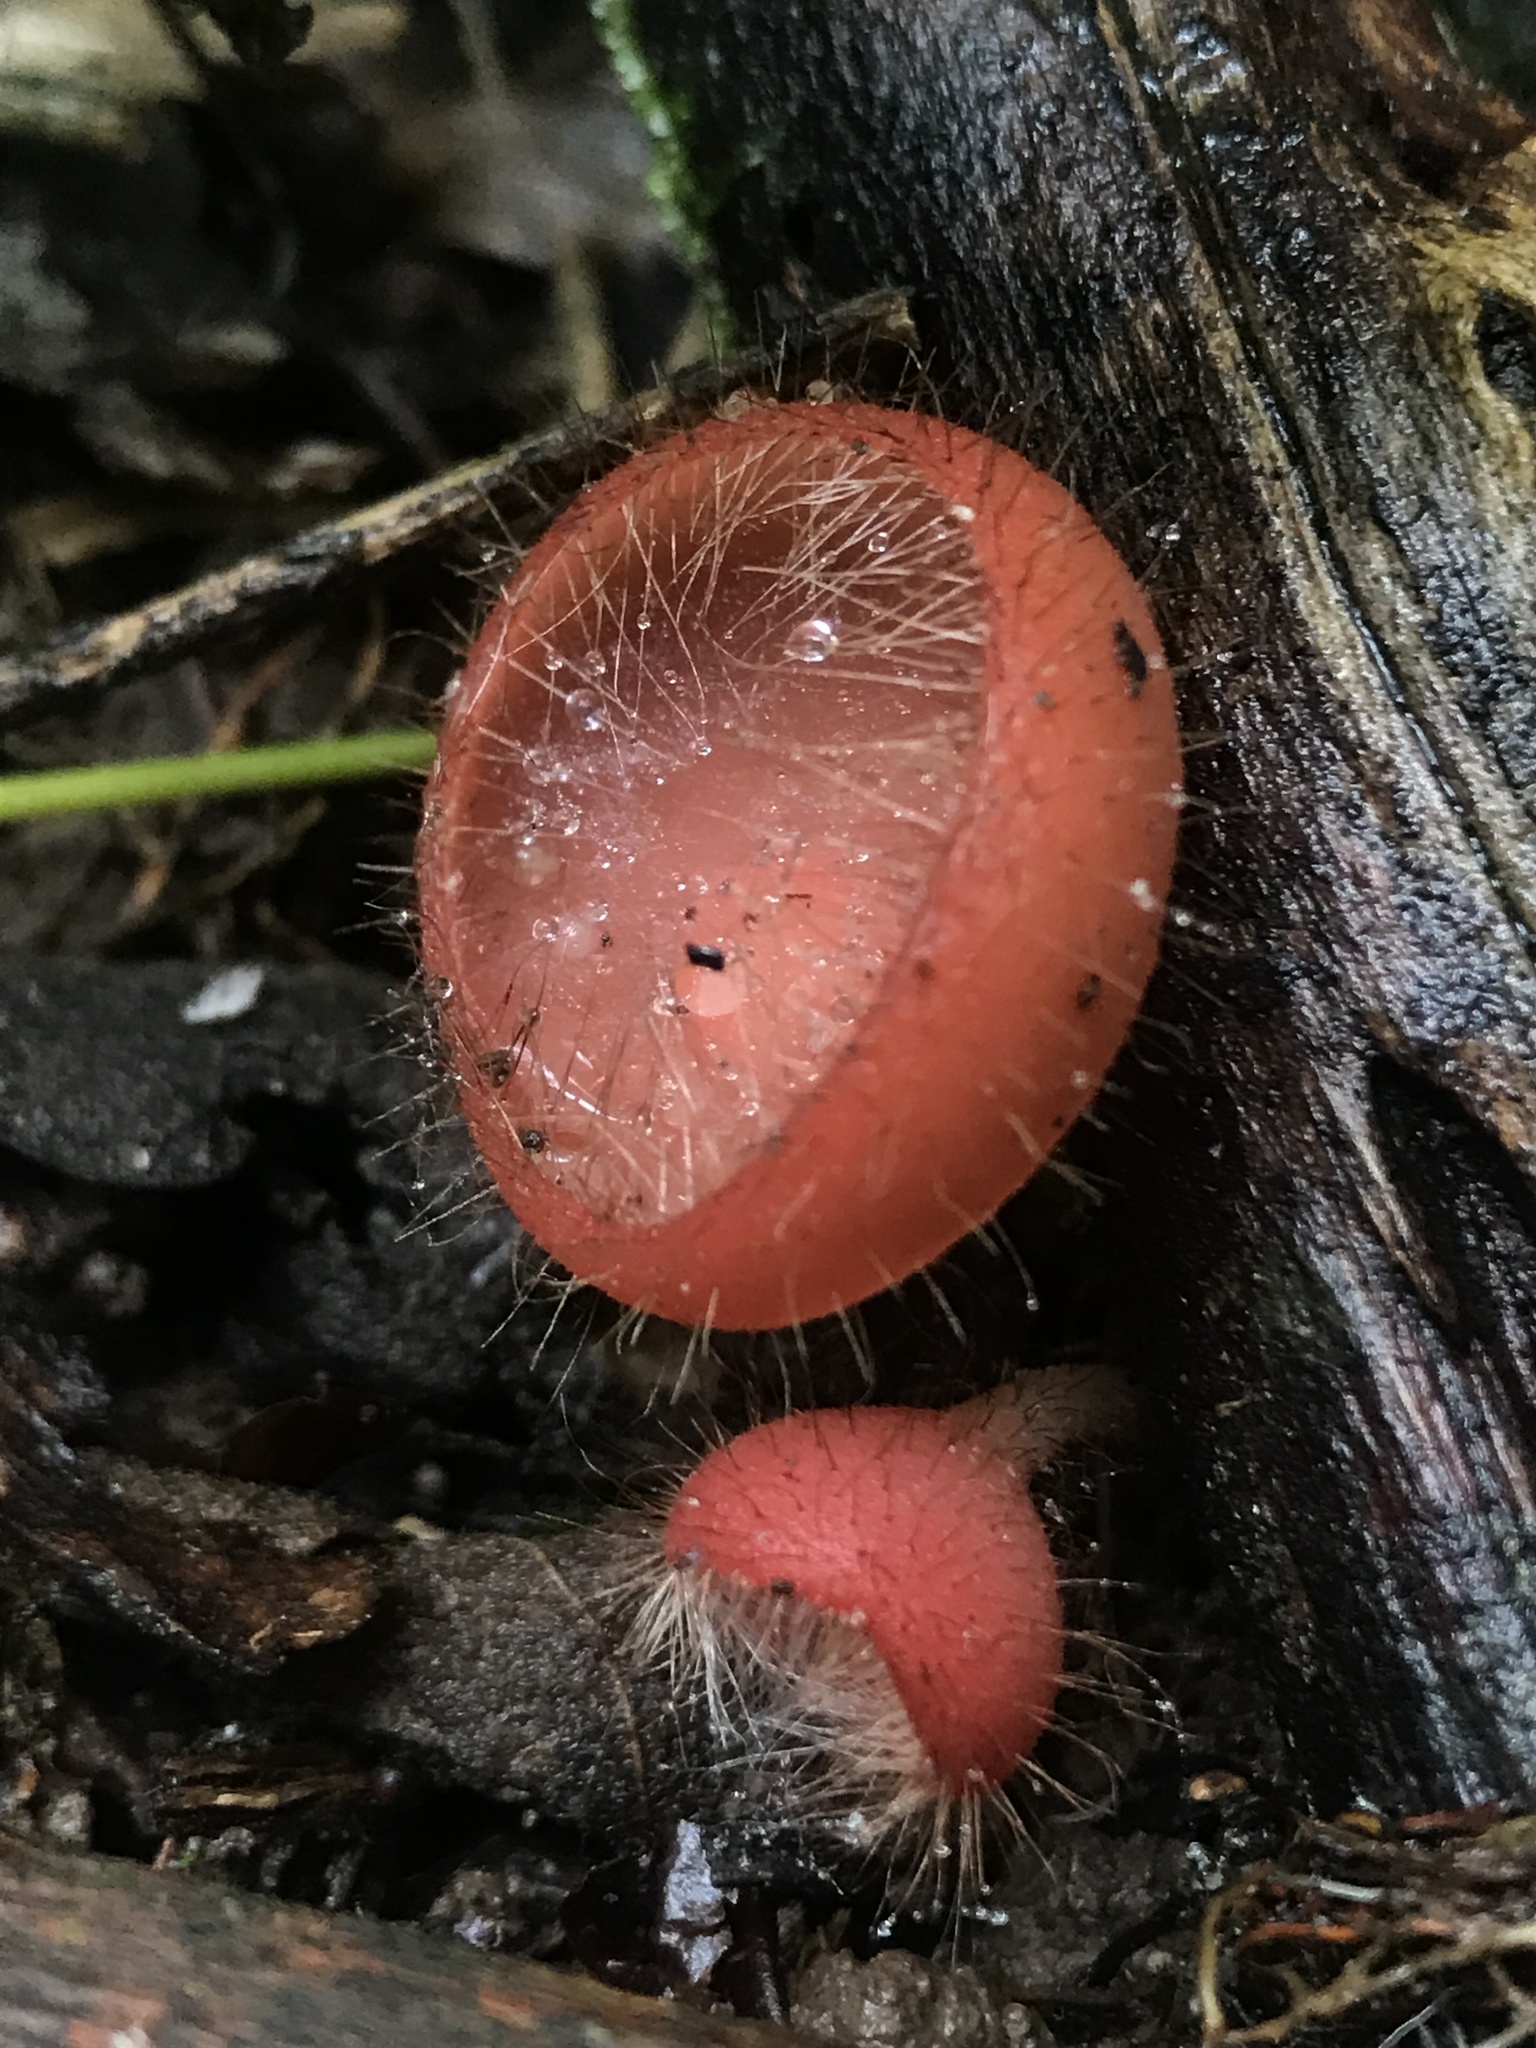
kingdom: Fungi
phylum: Ascomycota
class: Pezizomycetes
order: Pezizales
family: Sarcoscyphaceae
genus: Cookeina
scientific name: Cookeina tricholoma
